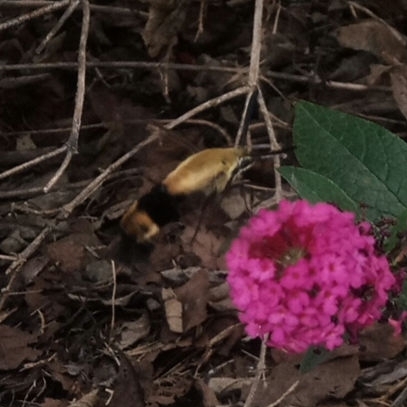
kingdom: Animalia
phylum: Arthropoda
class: Insecta
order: Lepidoptera
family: Sphingidae
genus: Hemaris
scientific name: Hemaris diffinis
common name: Bumblebee moth
